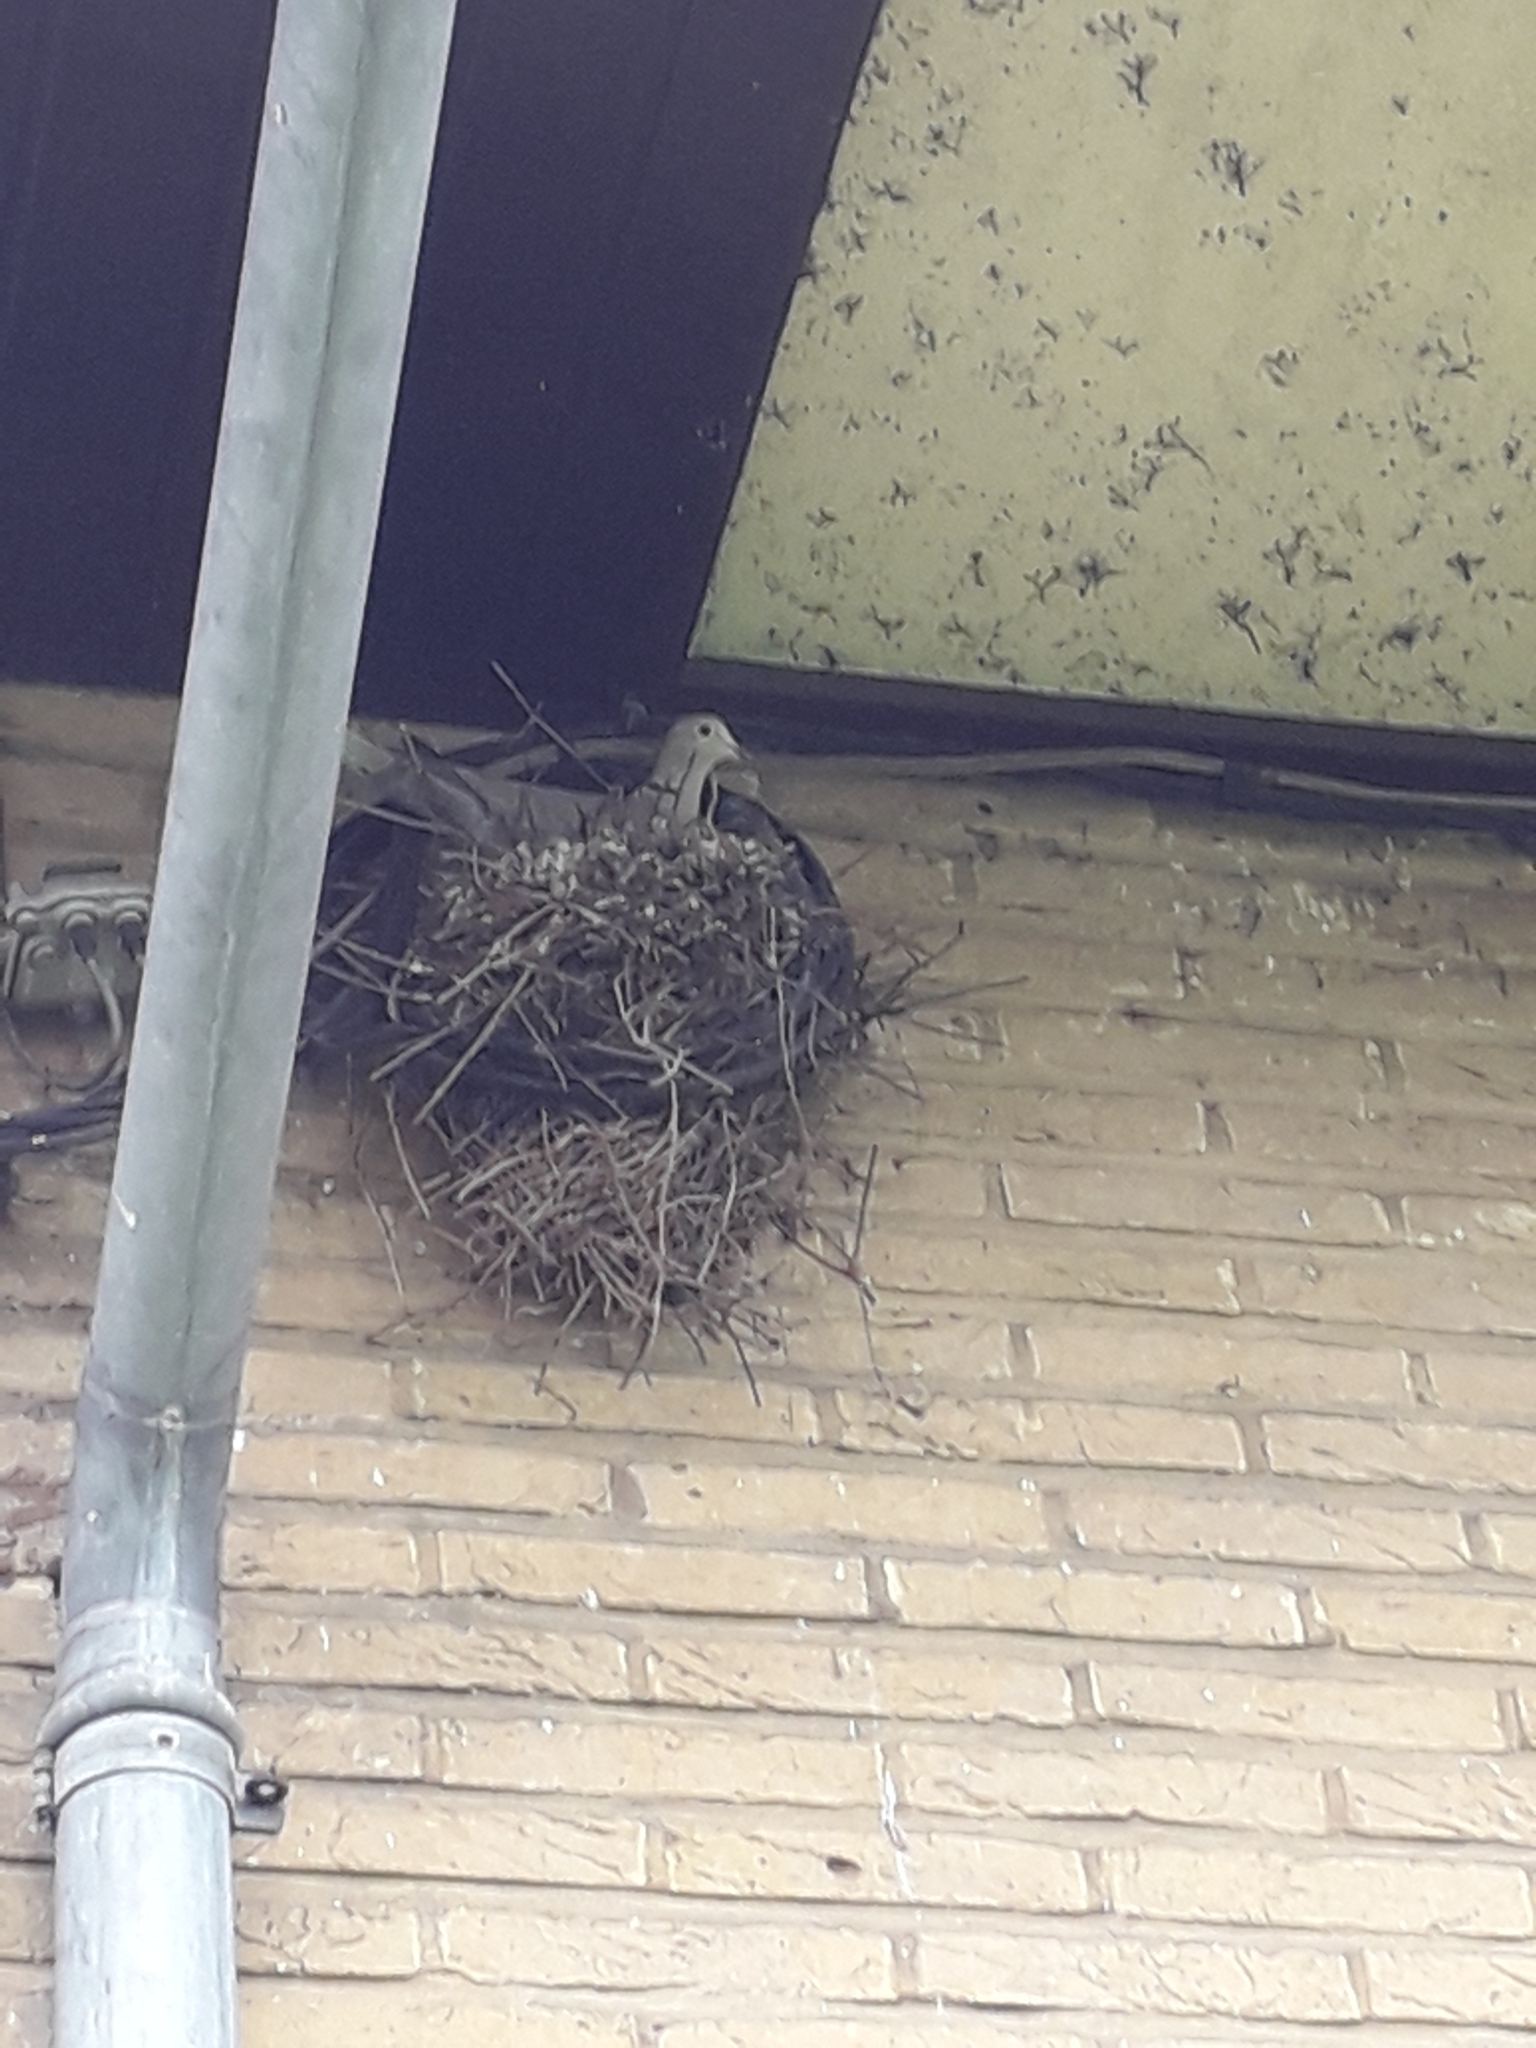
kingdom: Animalia
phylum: Chordata
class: Aves
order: Columbiformes
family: Columbidae
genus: Streptopelia
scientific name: Streptopelia decaocto
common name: Eurasian collared dove
